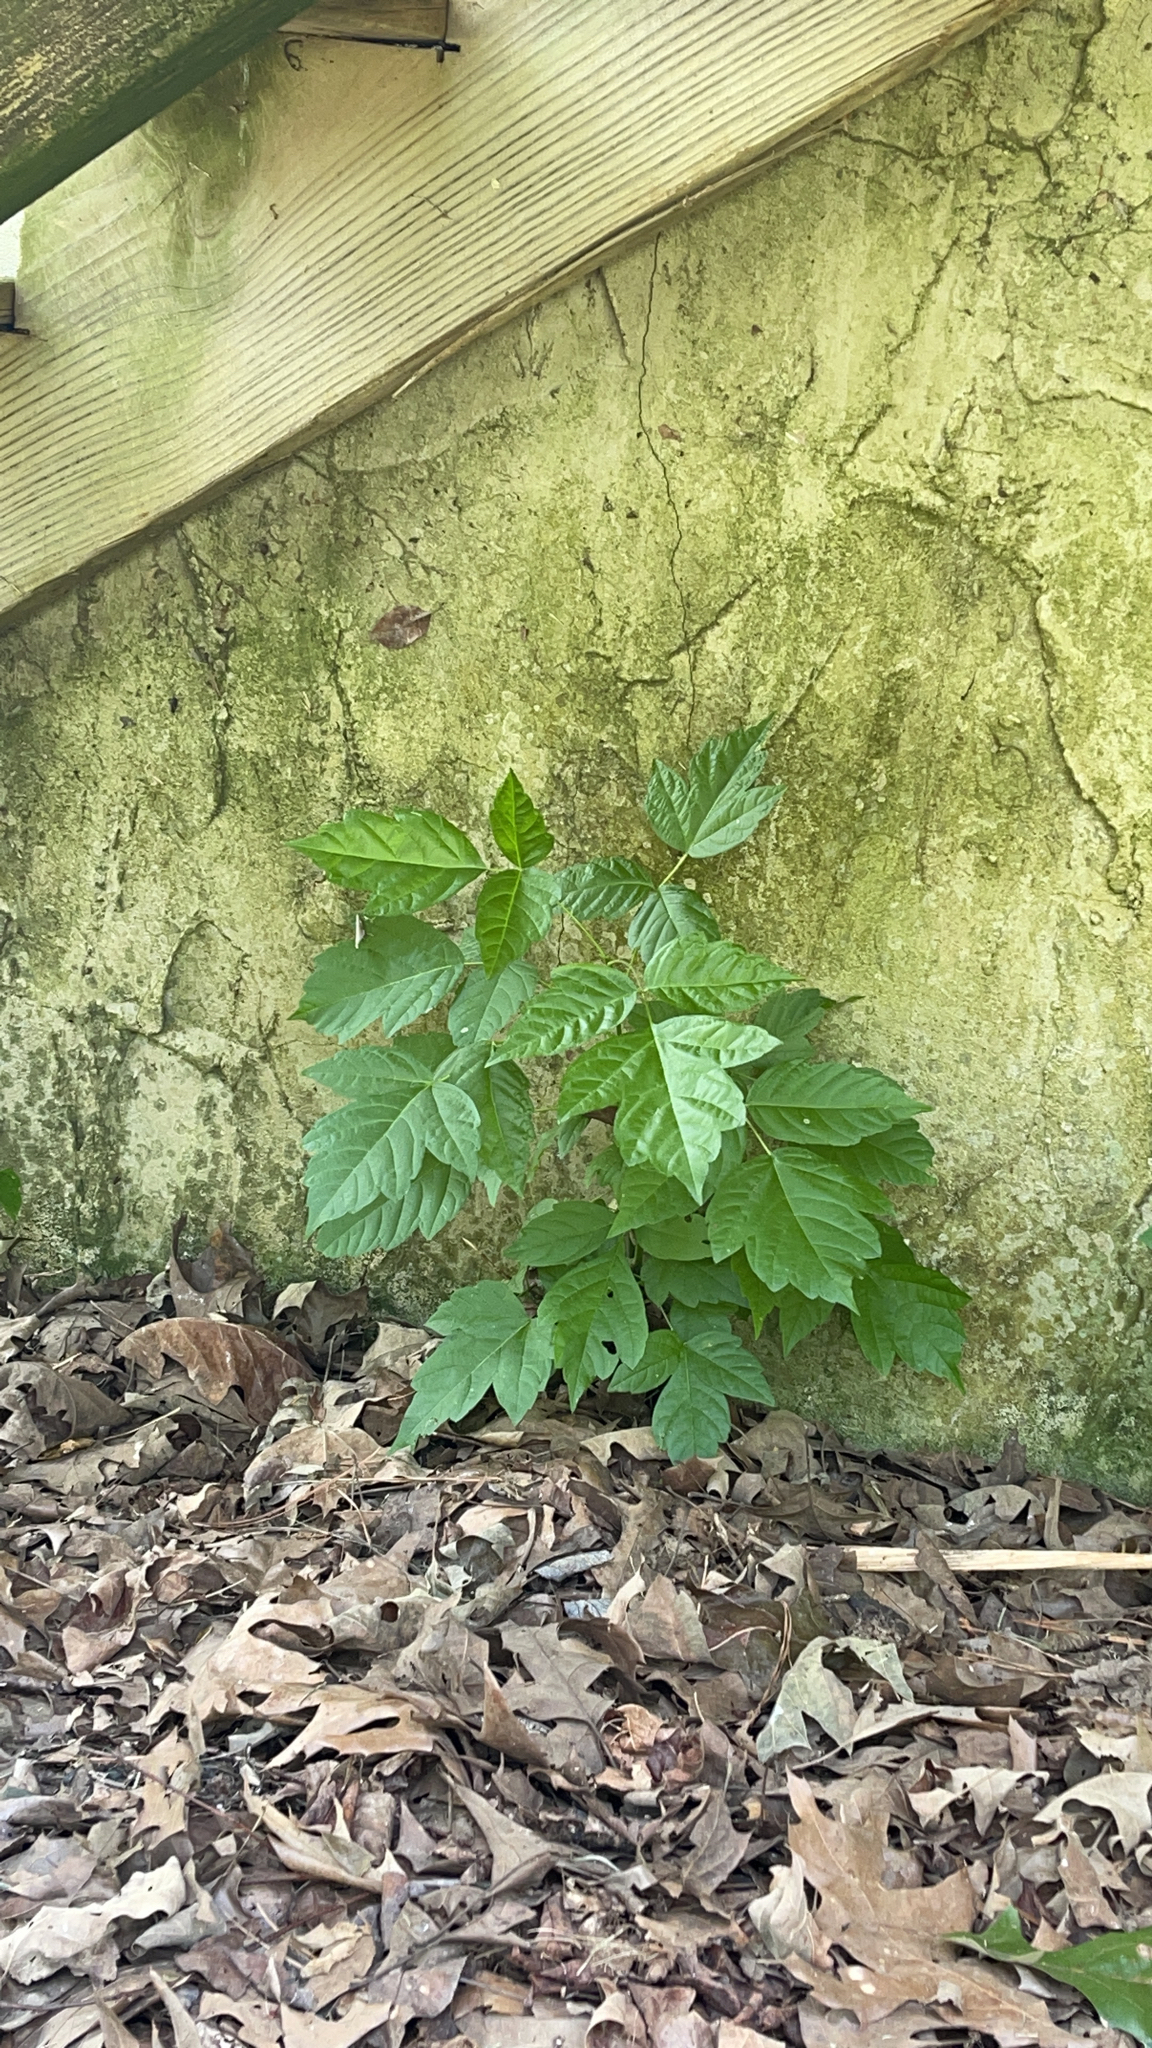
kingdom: Plantae
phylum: Tracheophyta
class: Magnoliopsida
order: Sapindales
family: Anacardiaceae
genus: Toxicodendron
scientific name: Toxicodendron radicans
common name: Poison ivy
